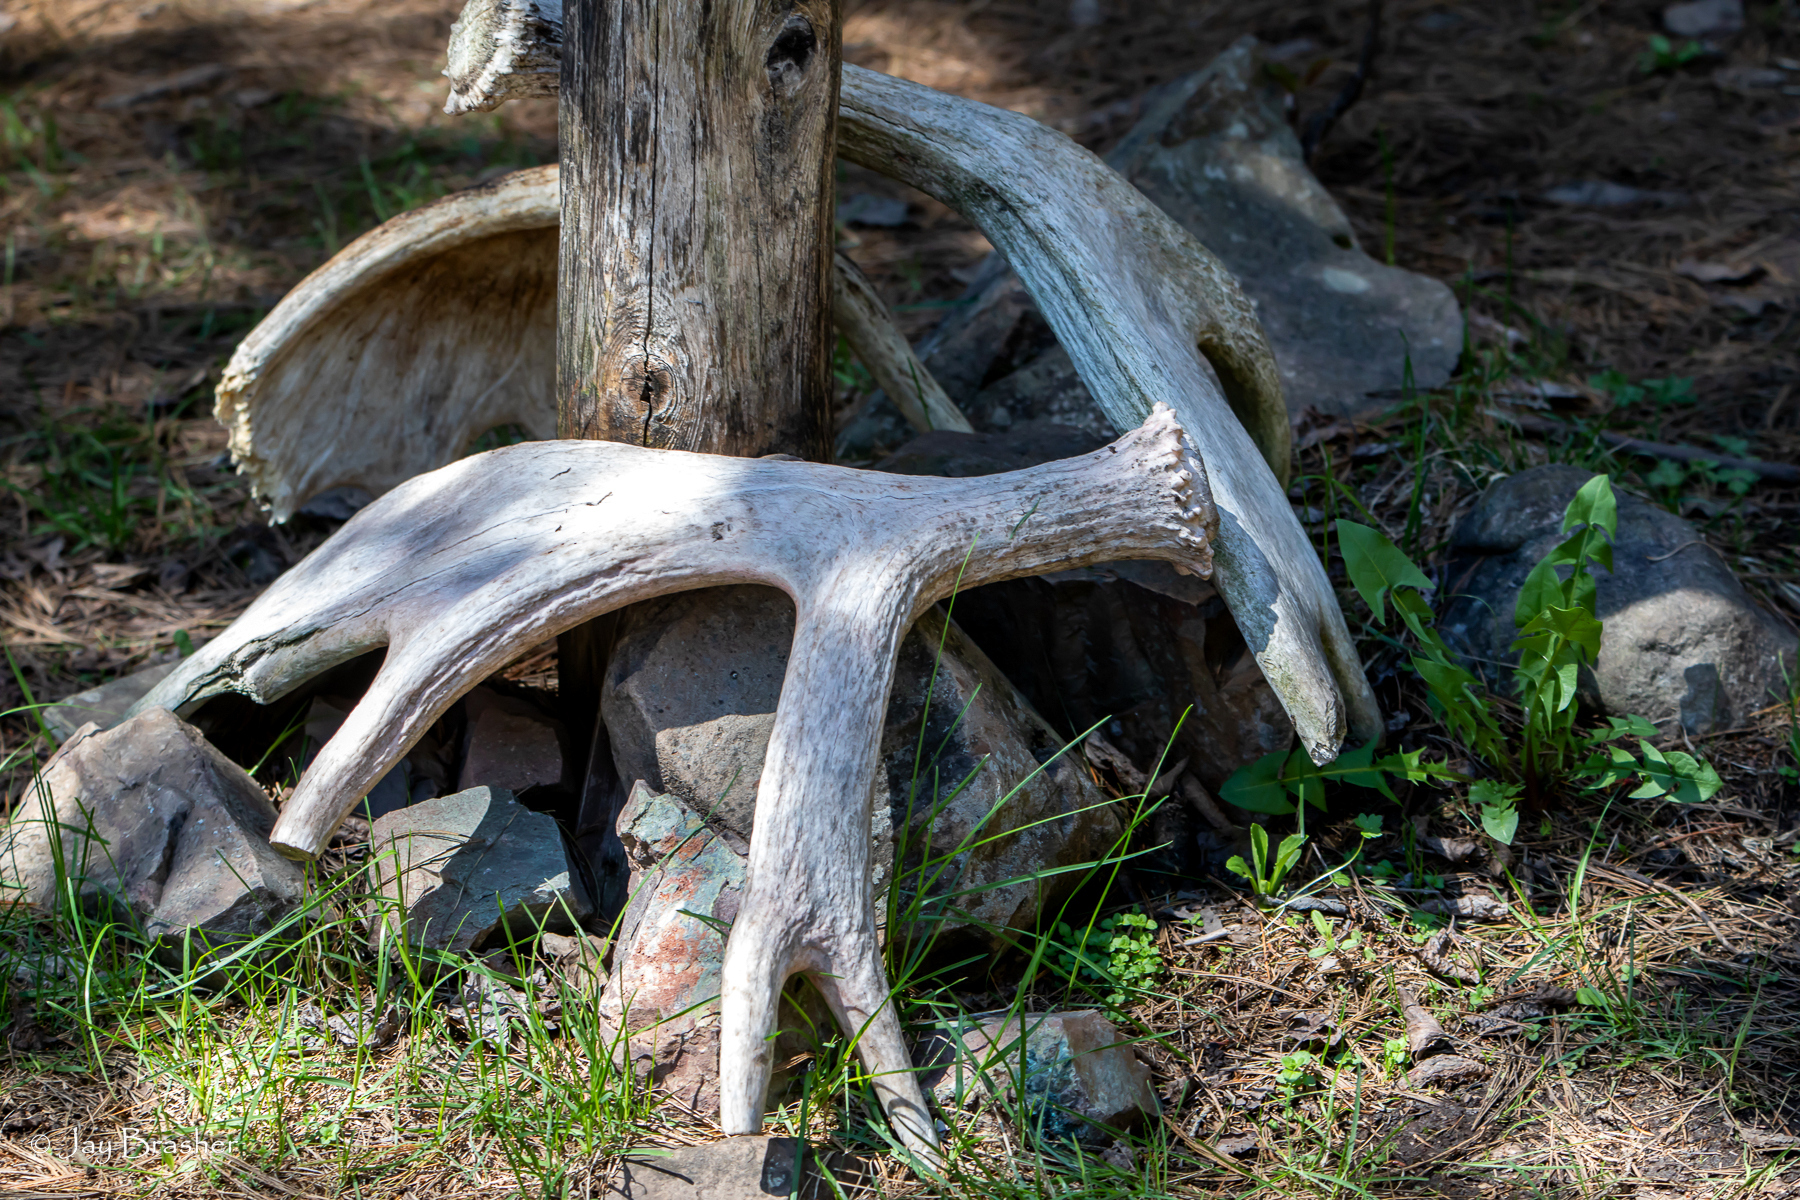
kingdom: Animalia
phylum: Chordata
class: Mammalia
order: Artiodactyla
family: Cervidae
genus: Alces
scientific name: Alces americanus
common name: Moose
